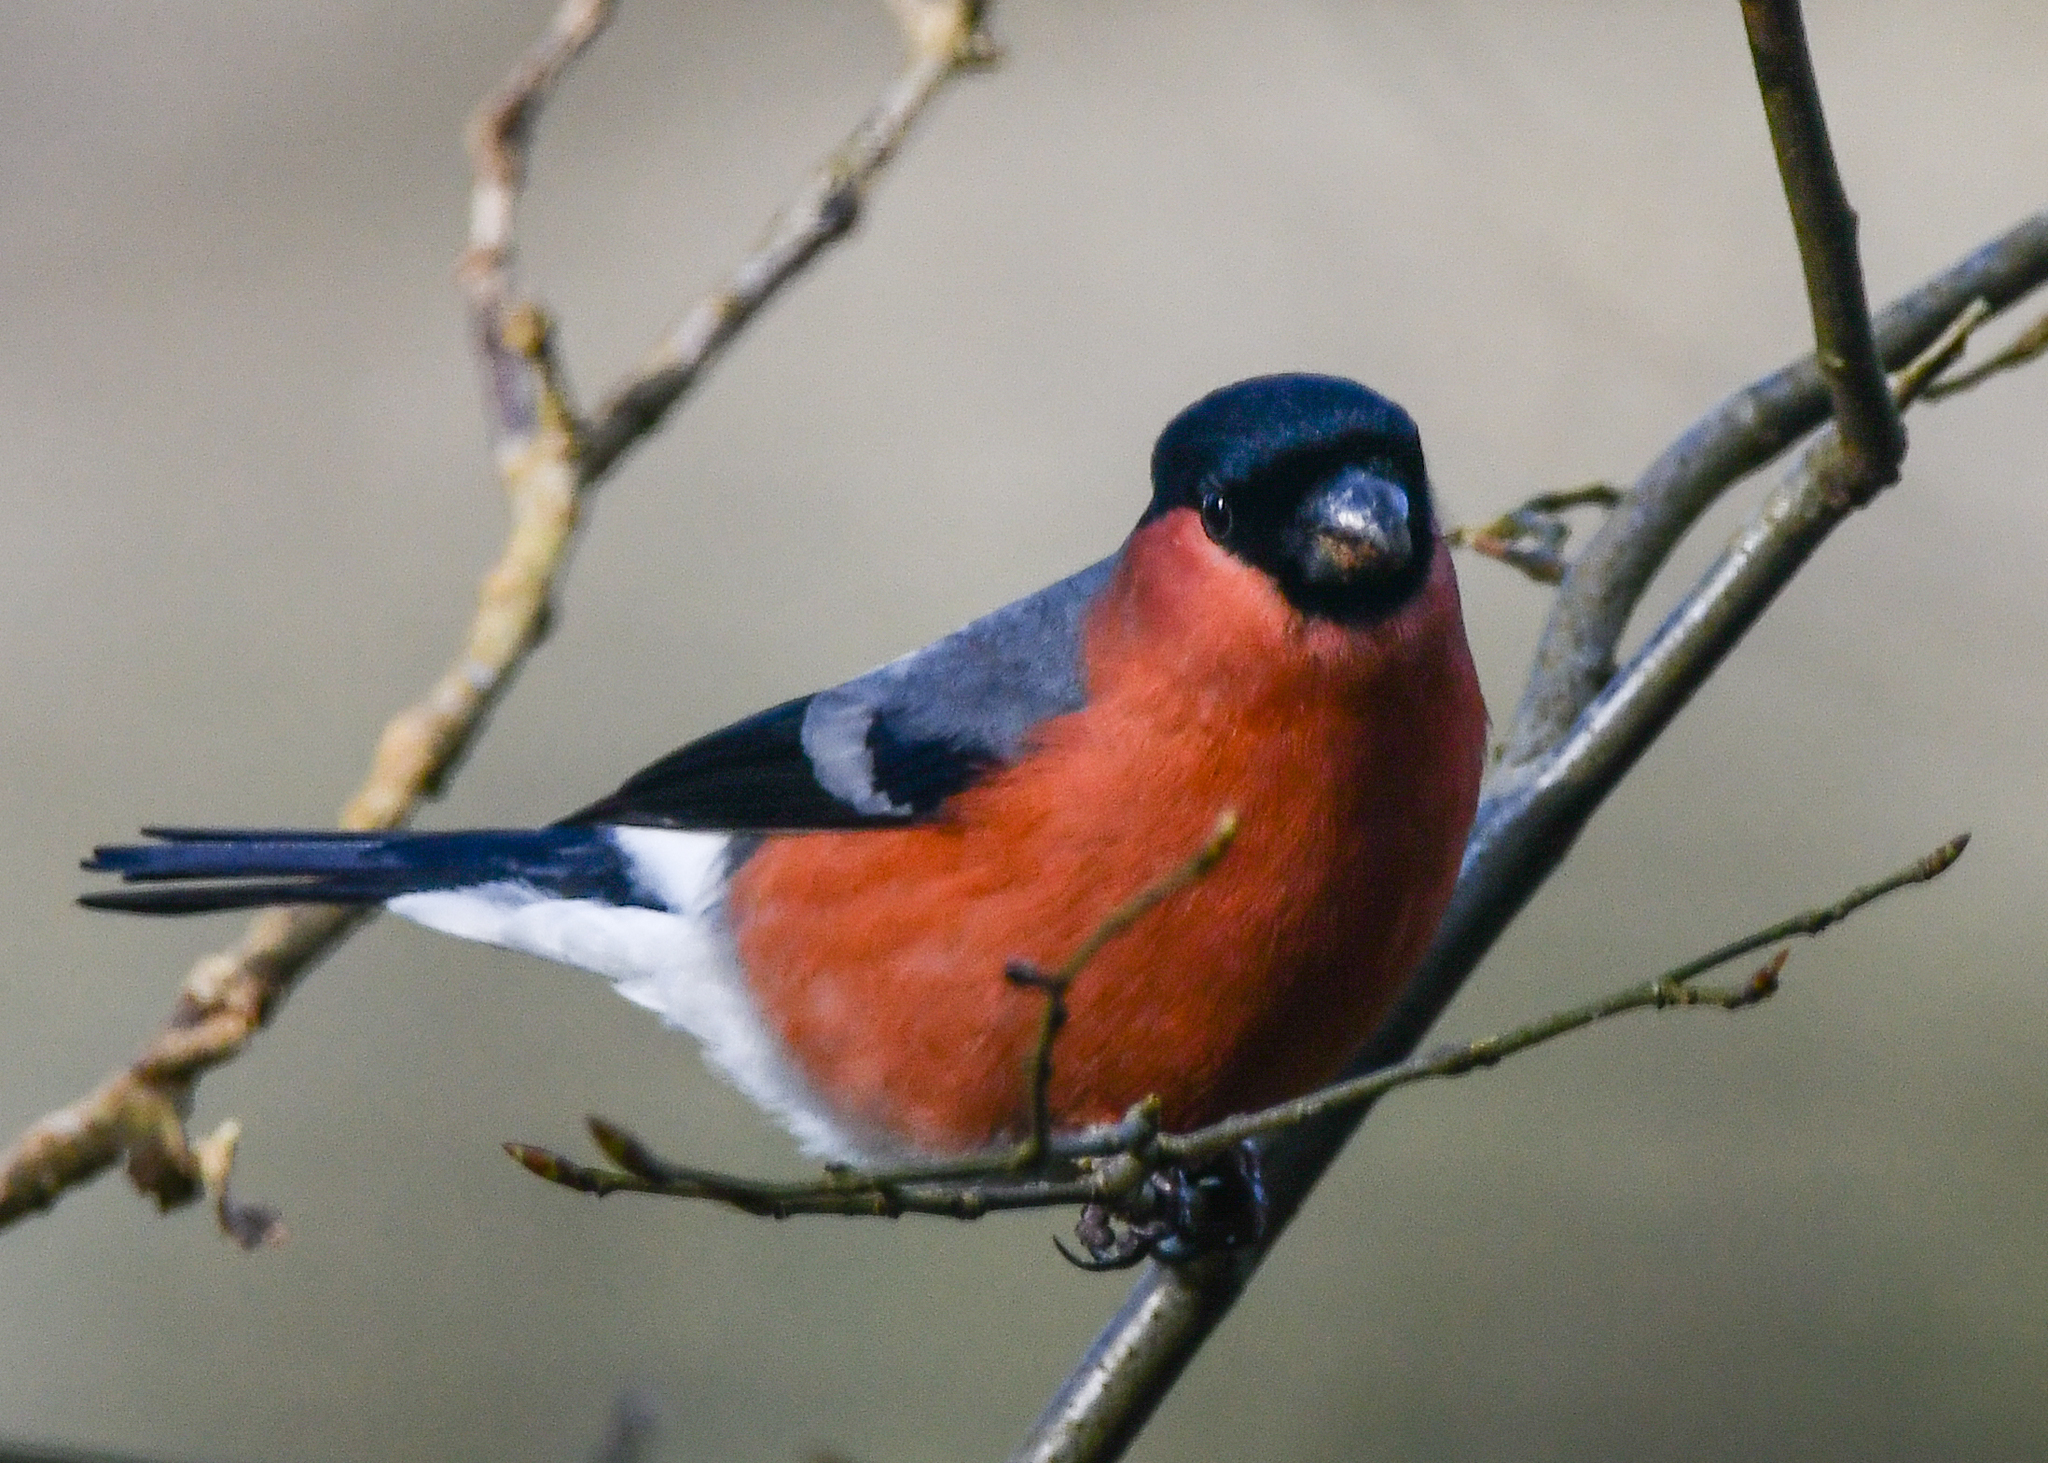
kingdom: Animalia
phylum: Chordata
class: Aves
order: Passeriformes
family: Fringillidae
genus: Pyrrhula
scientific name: Pyrrhula pyrrhula
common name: Eurasian bullfinch
